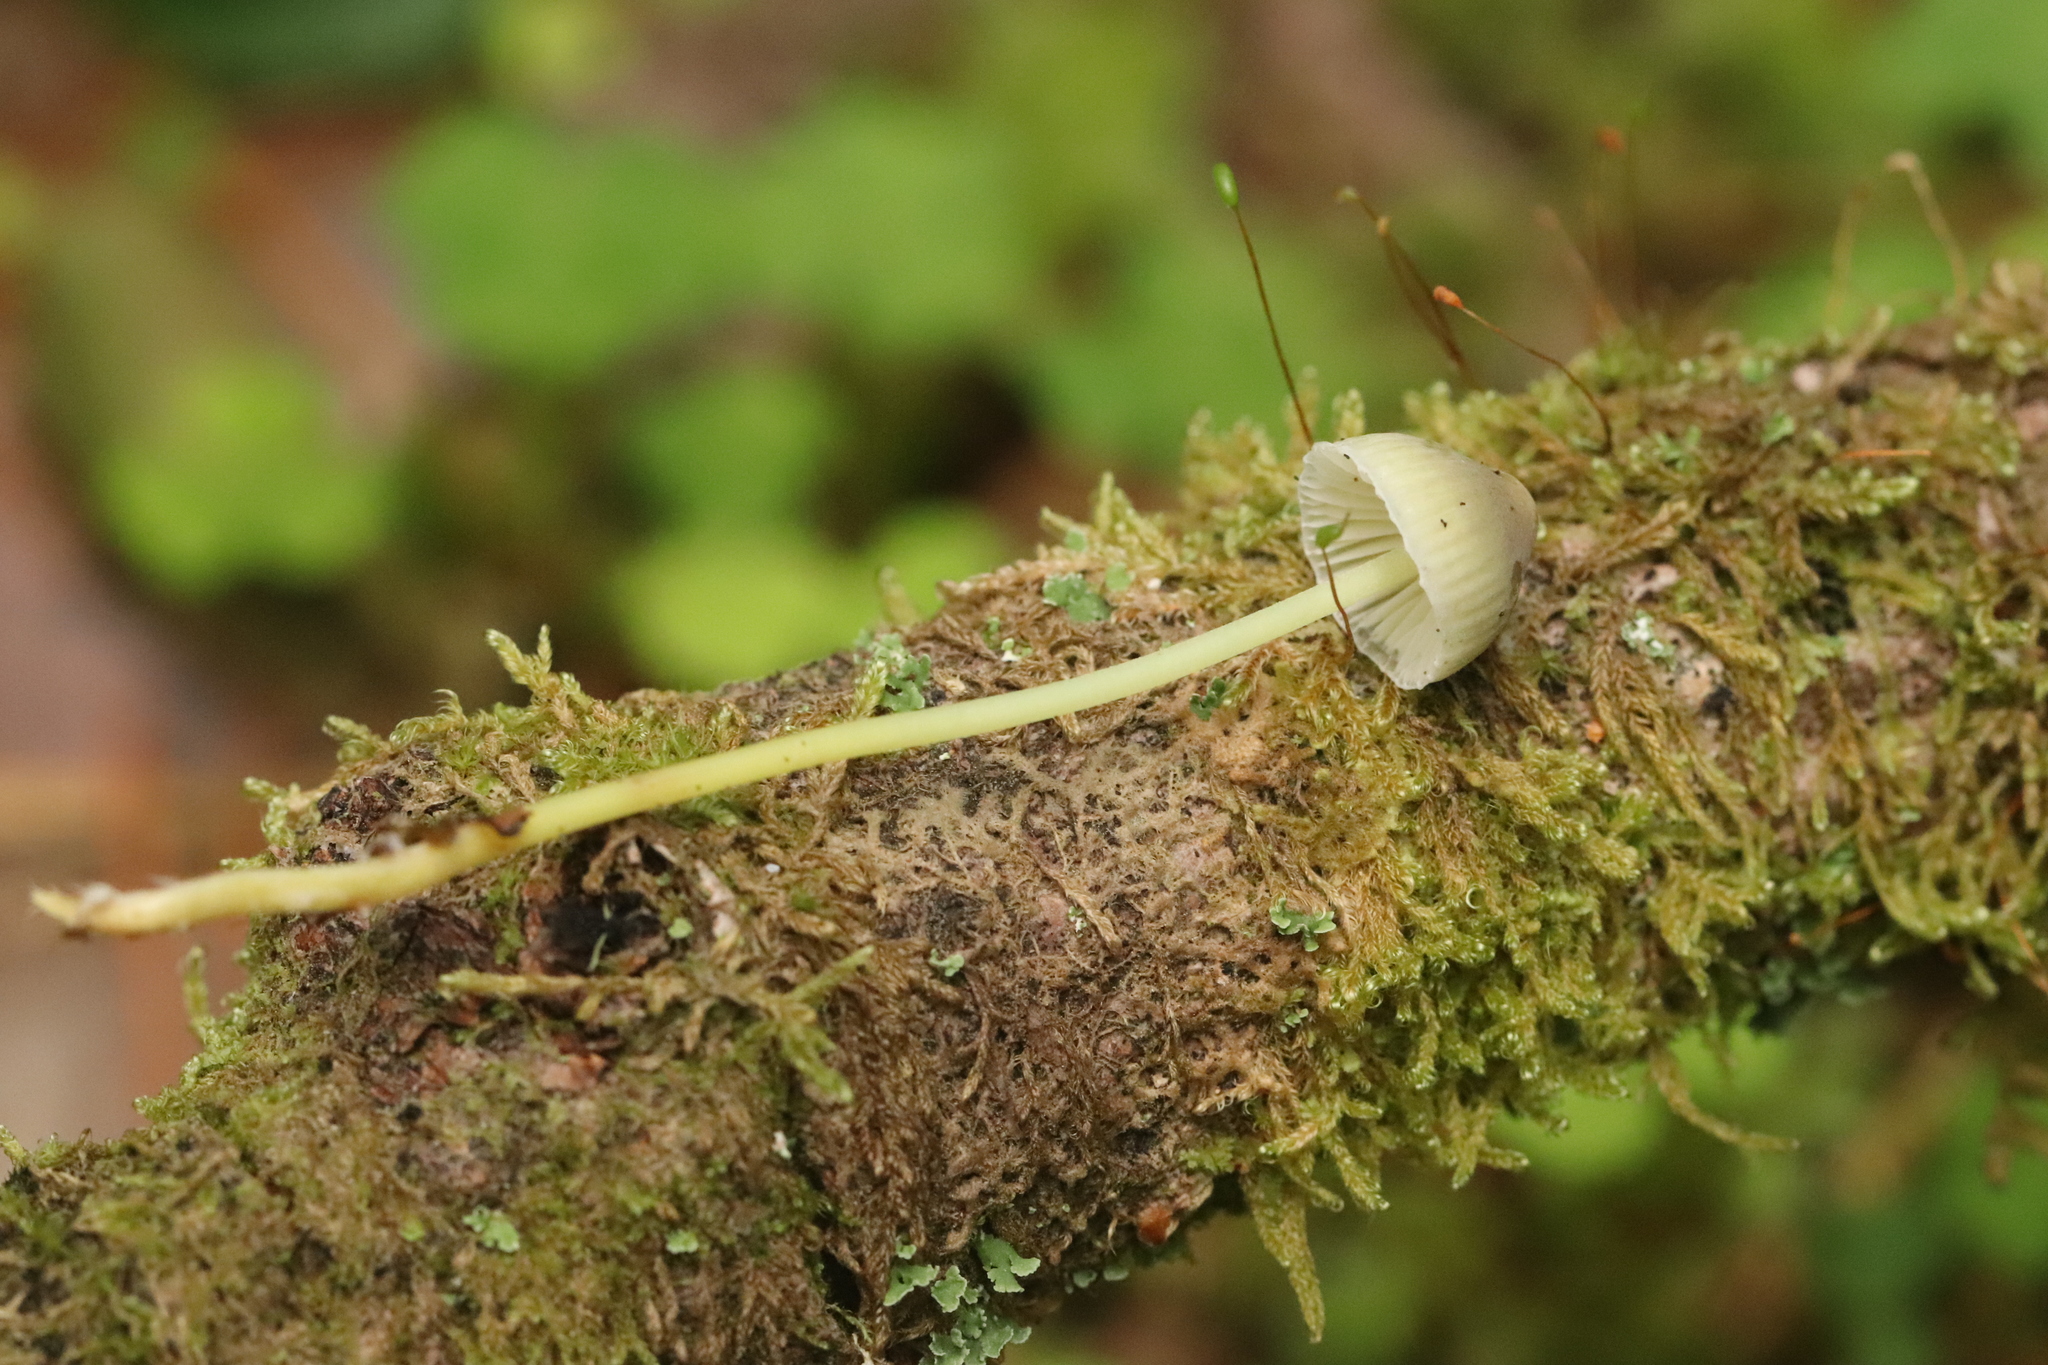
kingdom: Fungi
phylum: Basidiomycota
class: Agaricomycetes
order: Agaricales
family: Mycenaceae
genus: Mycena
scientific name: Mycena epipterygia
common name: Yellowleg bonnet
